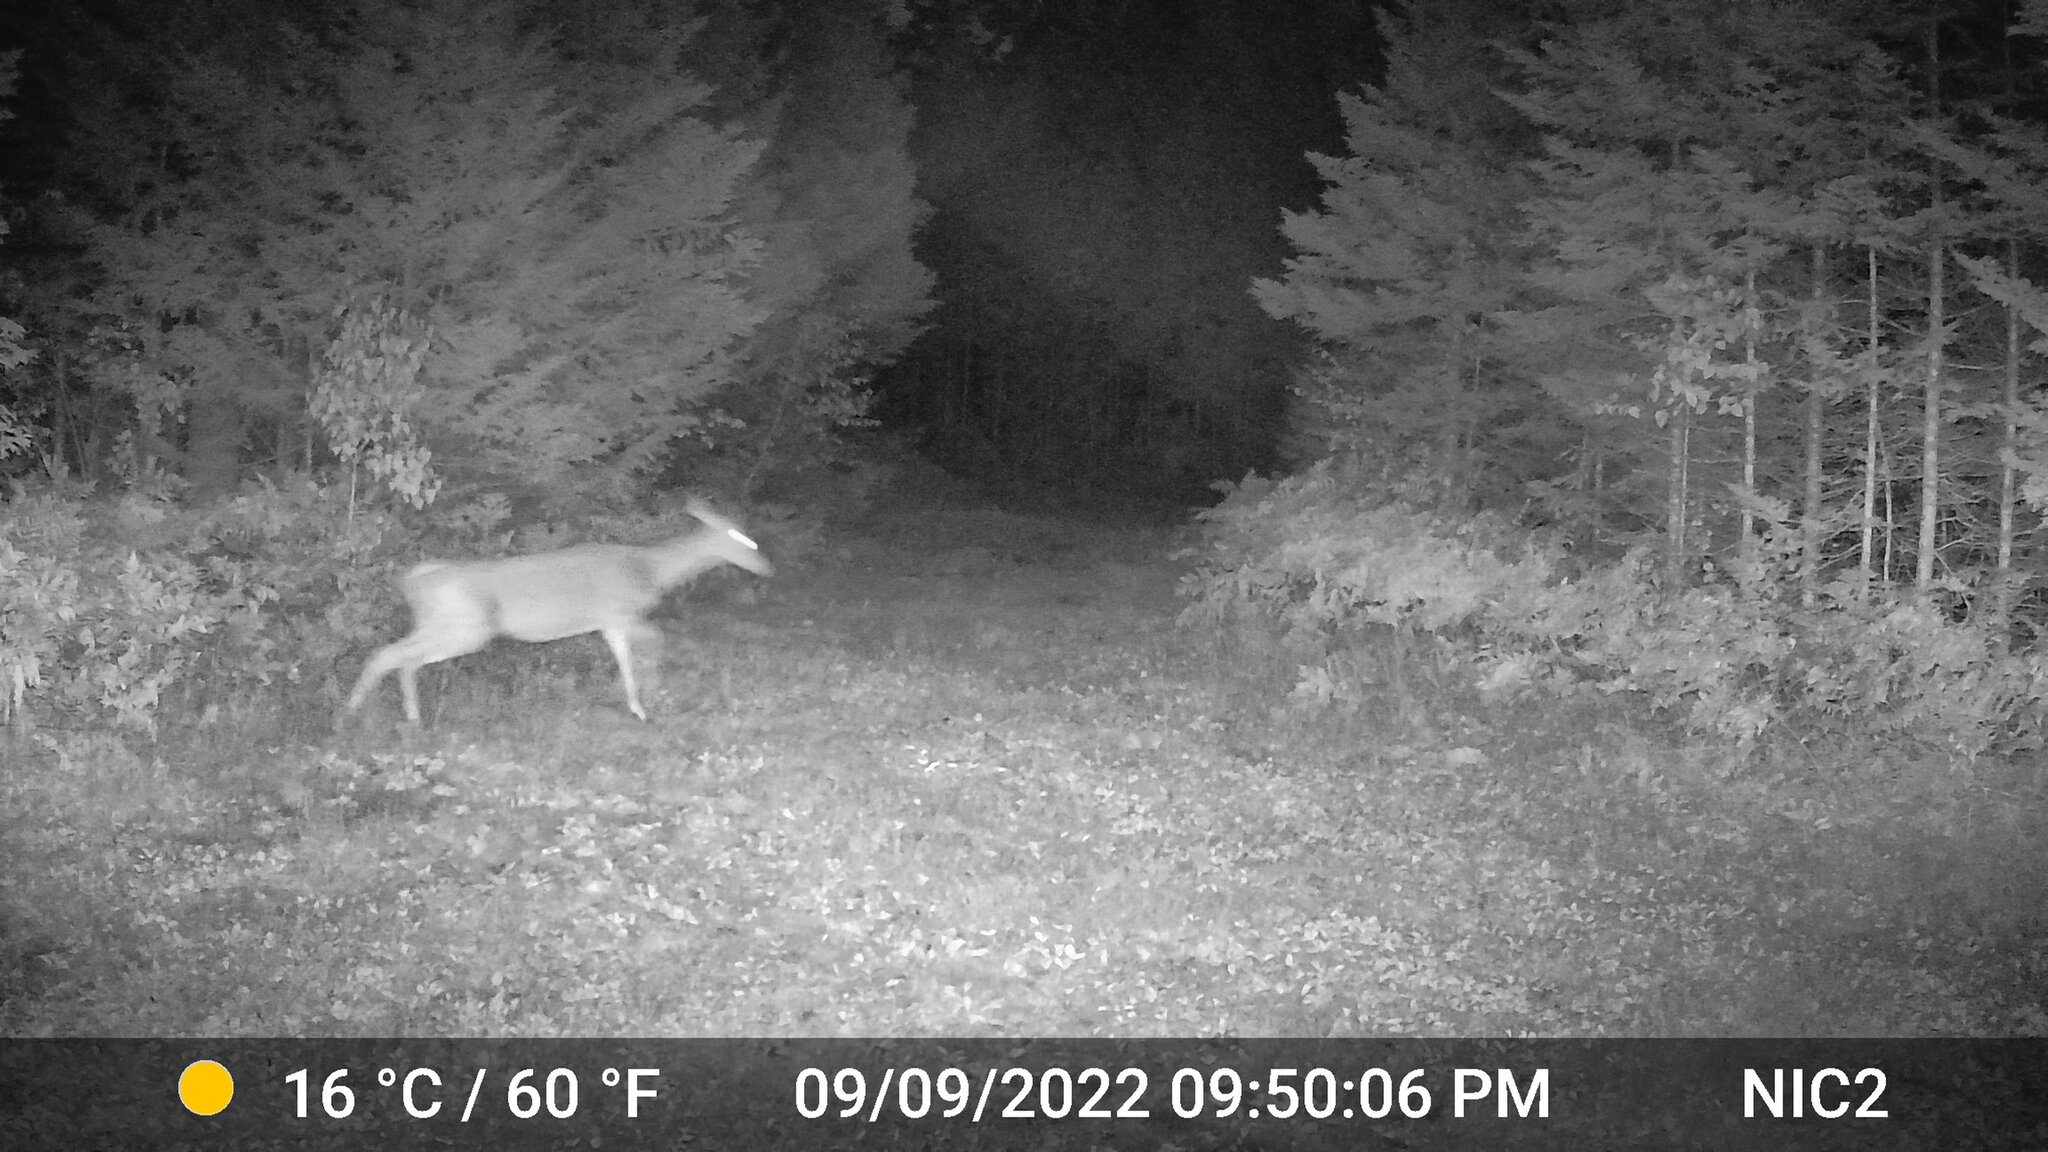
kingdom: Animalia
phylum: Chordata
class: Mammalia
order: Artiodactyla
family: Cervidae
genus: Odocoileus
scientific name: Odocoileus virginianus
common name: White-tailed deer
